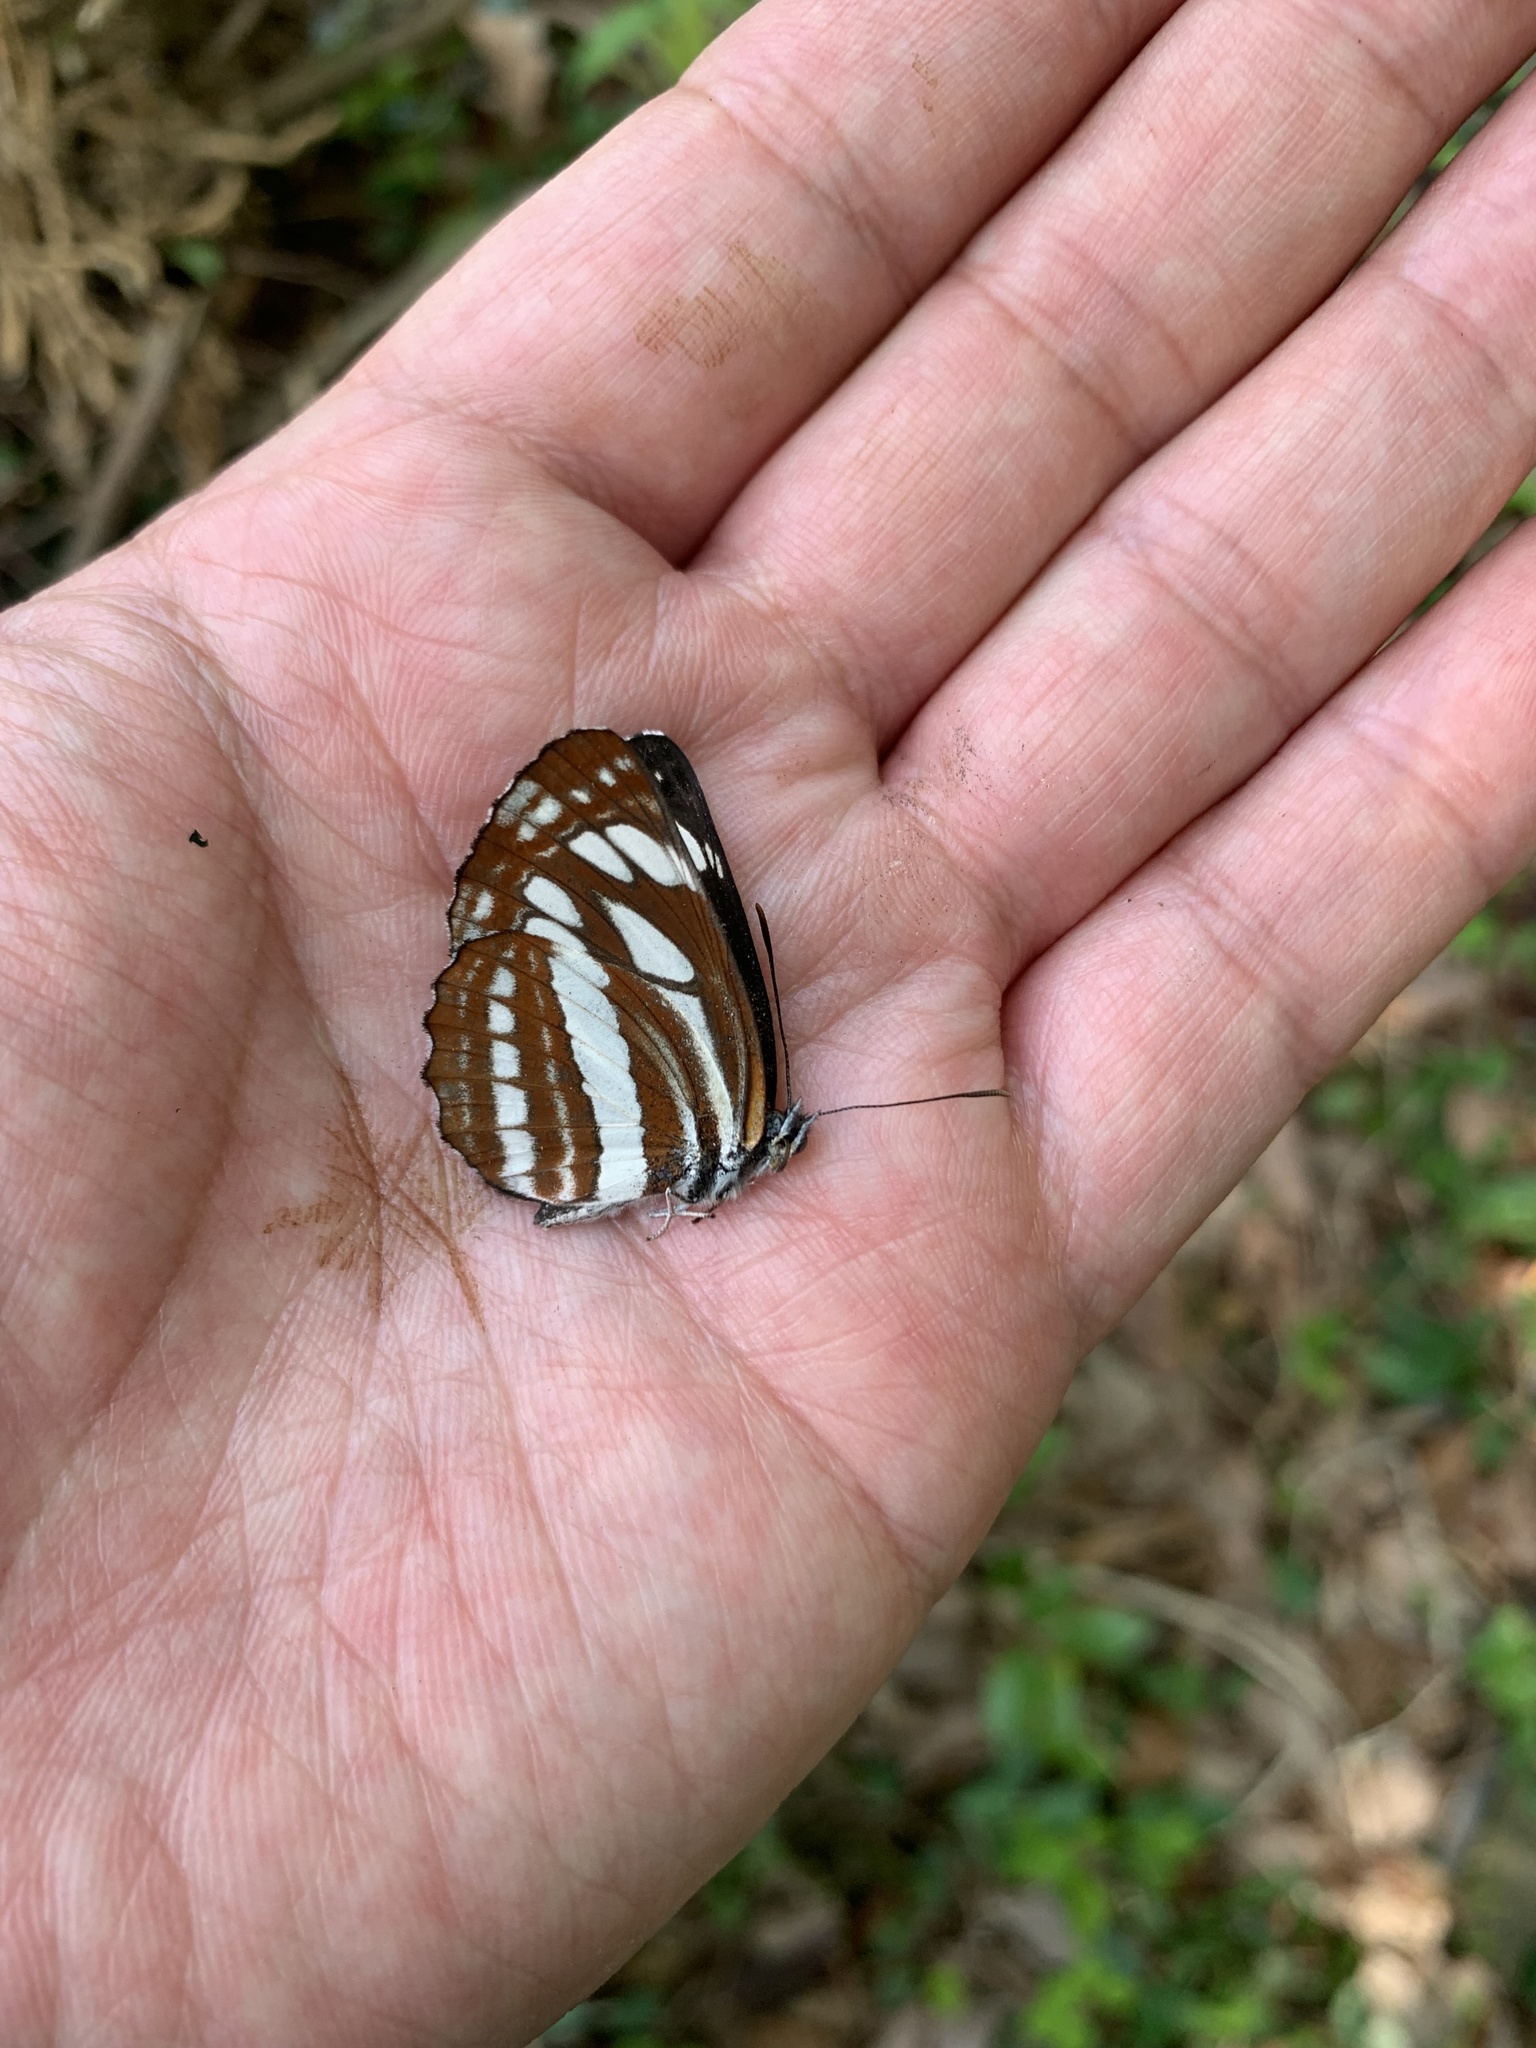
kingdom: Animalia
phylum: Arthropoda
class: Insecta
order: Lepidoptera
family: Nymphalidae
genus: Neptis
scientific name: Neptis sappho
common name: Common glider
